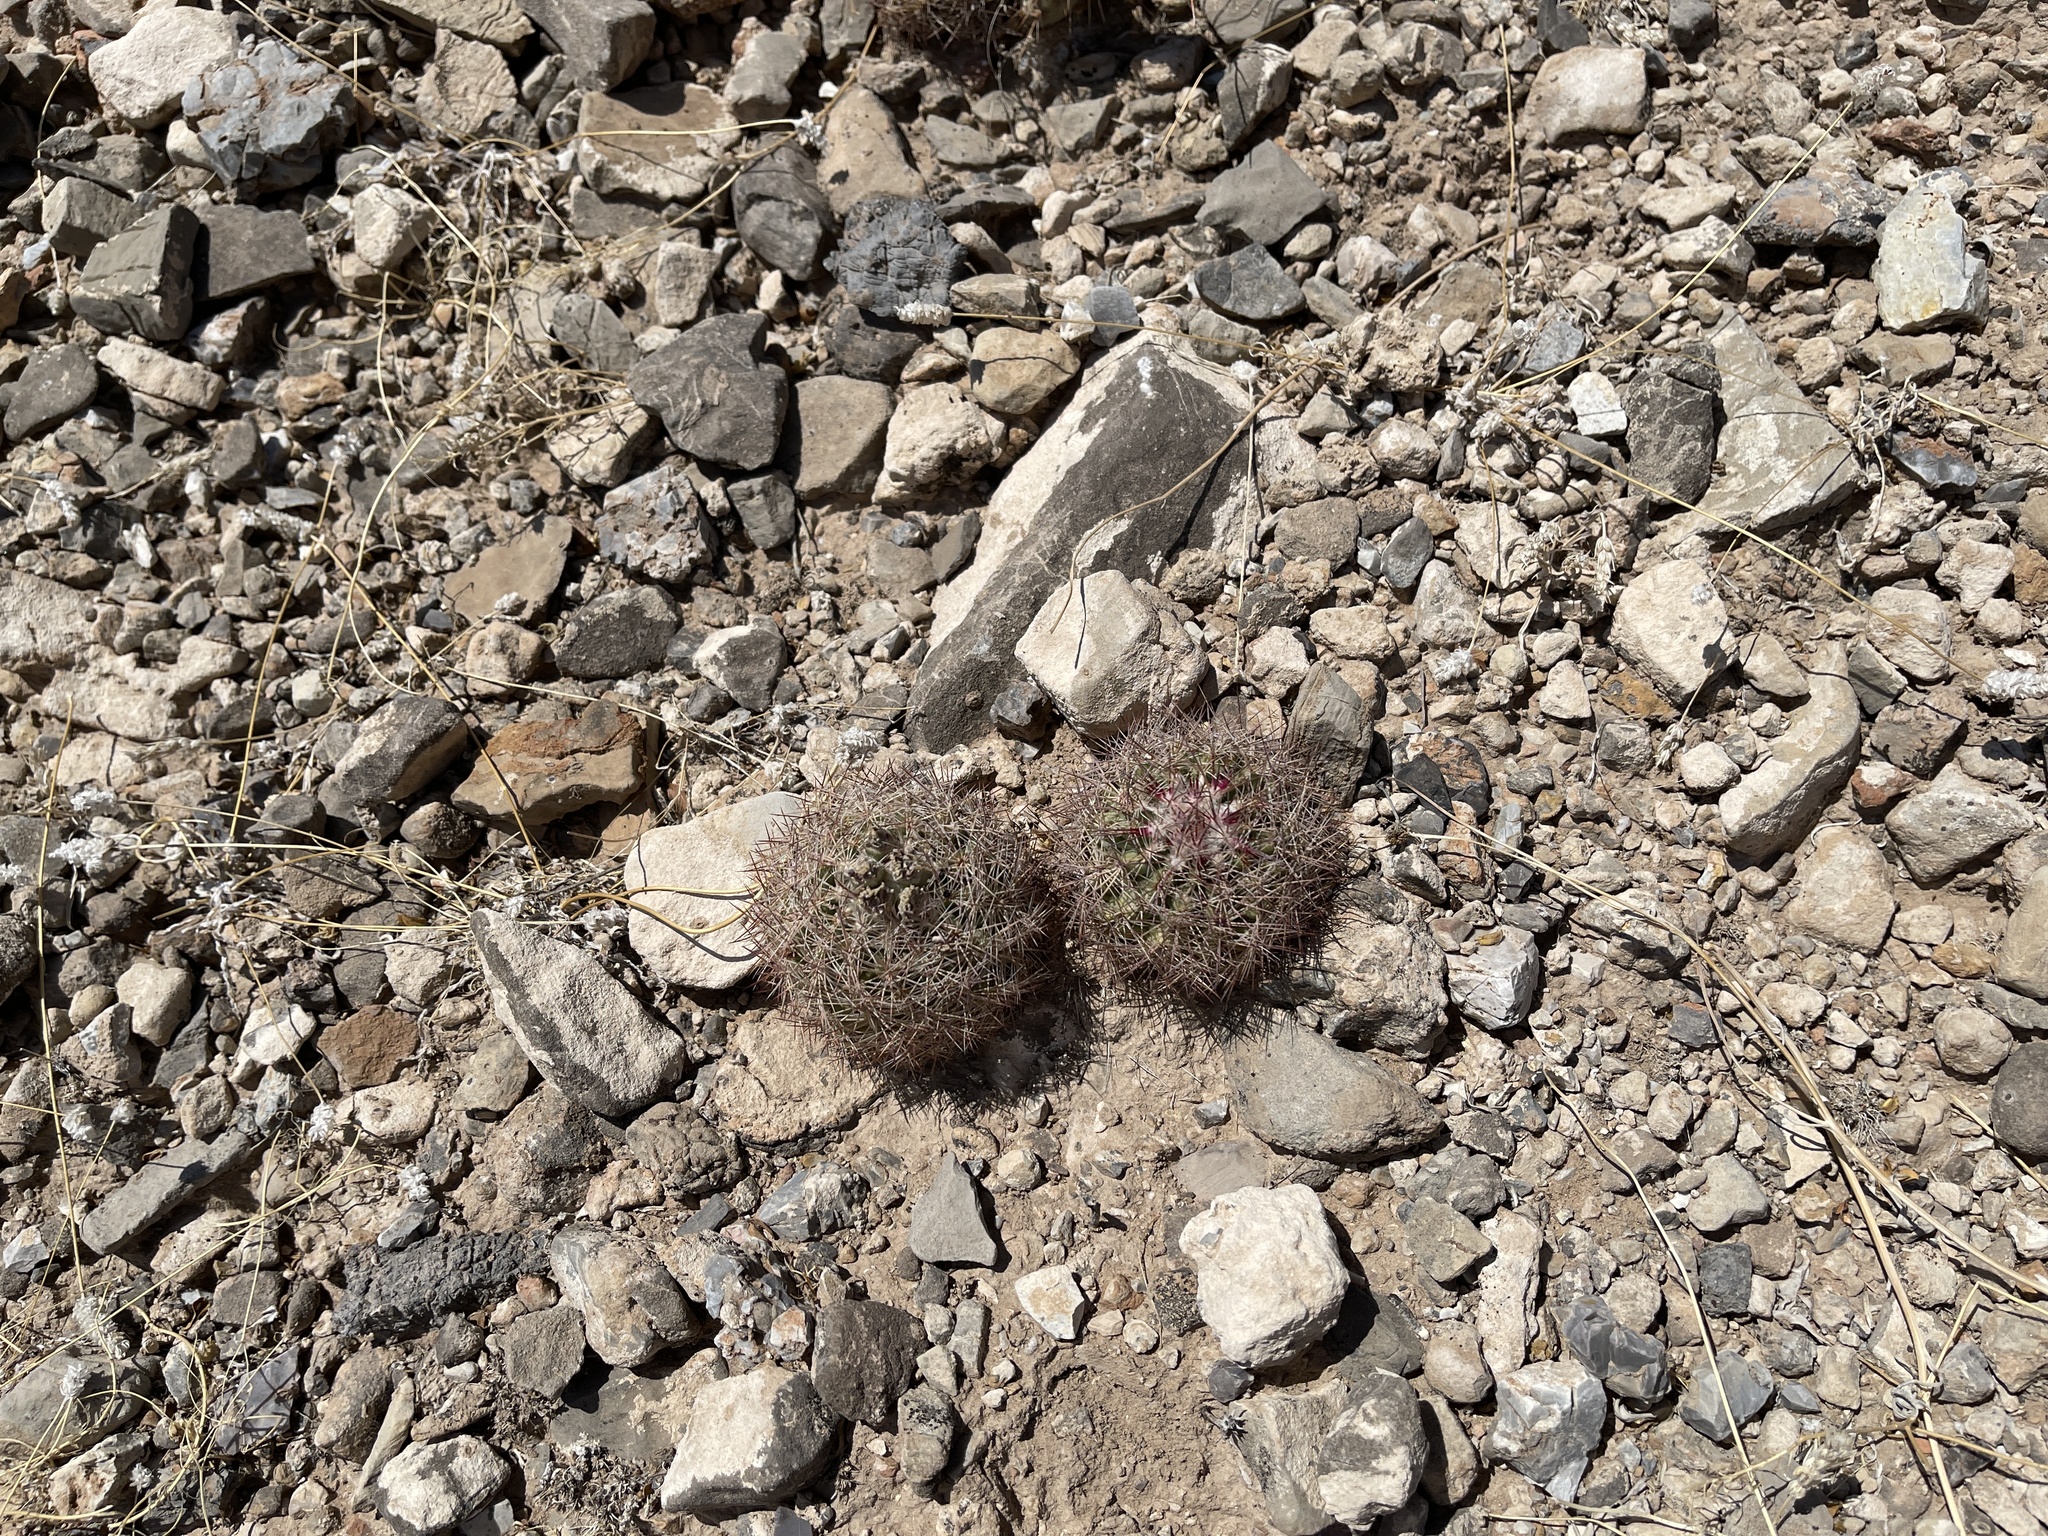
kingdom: Plantae
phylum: Tracheophyta
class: Magnoliopsida
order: Caryophyllales
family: Cactaceae
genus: Sclerocactus
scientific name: Sclerocactus intertextus
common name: White fish-hook cactus
